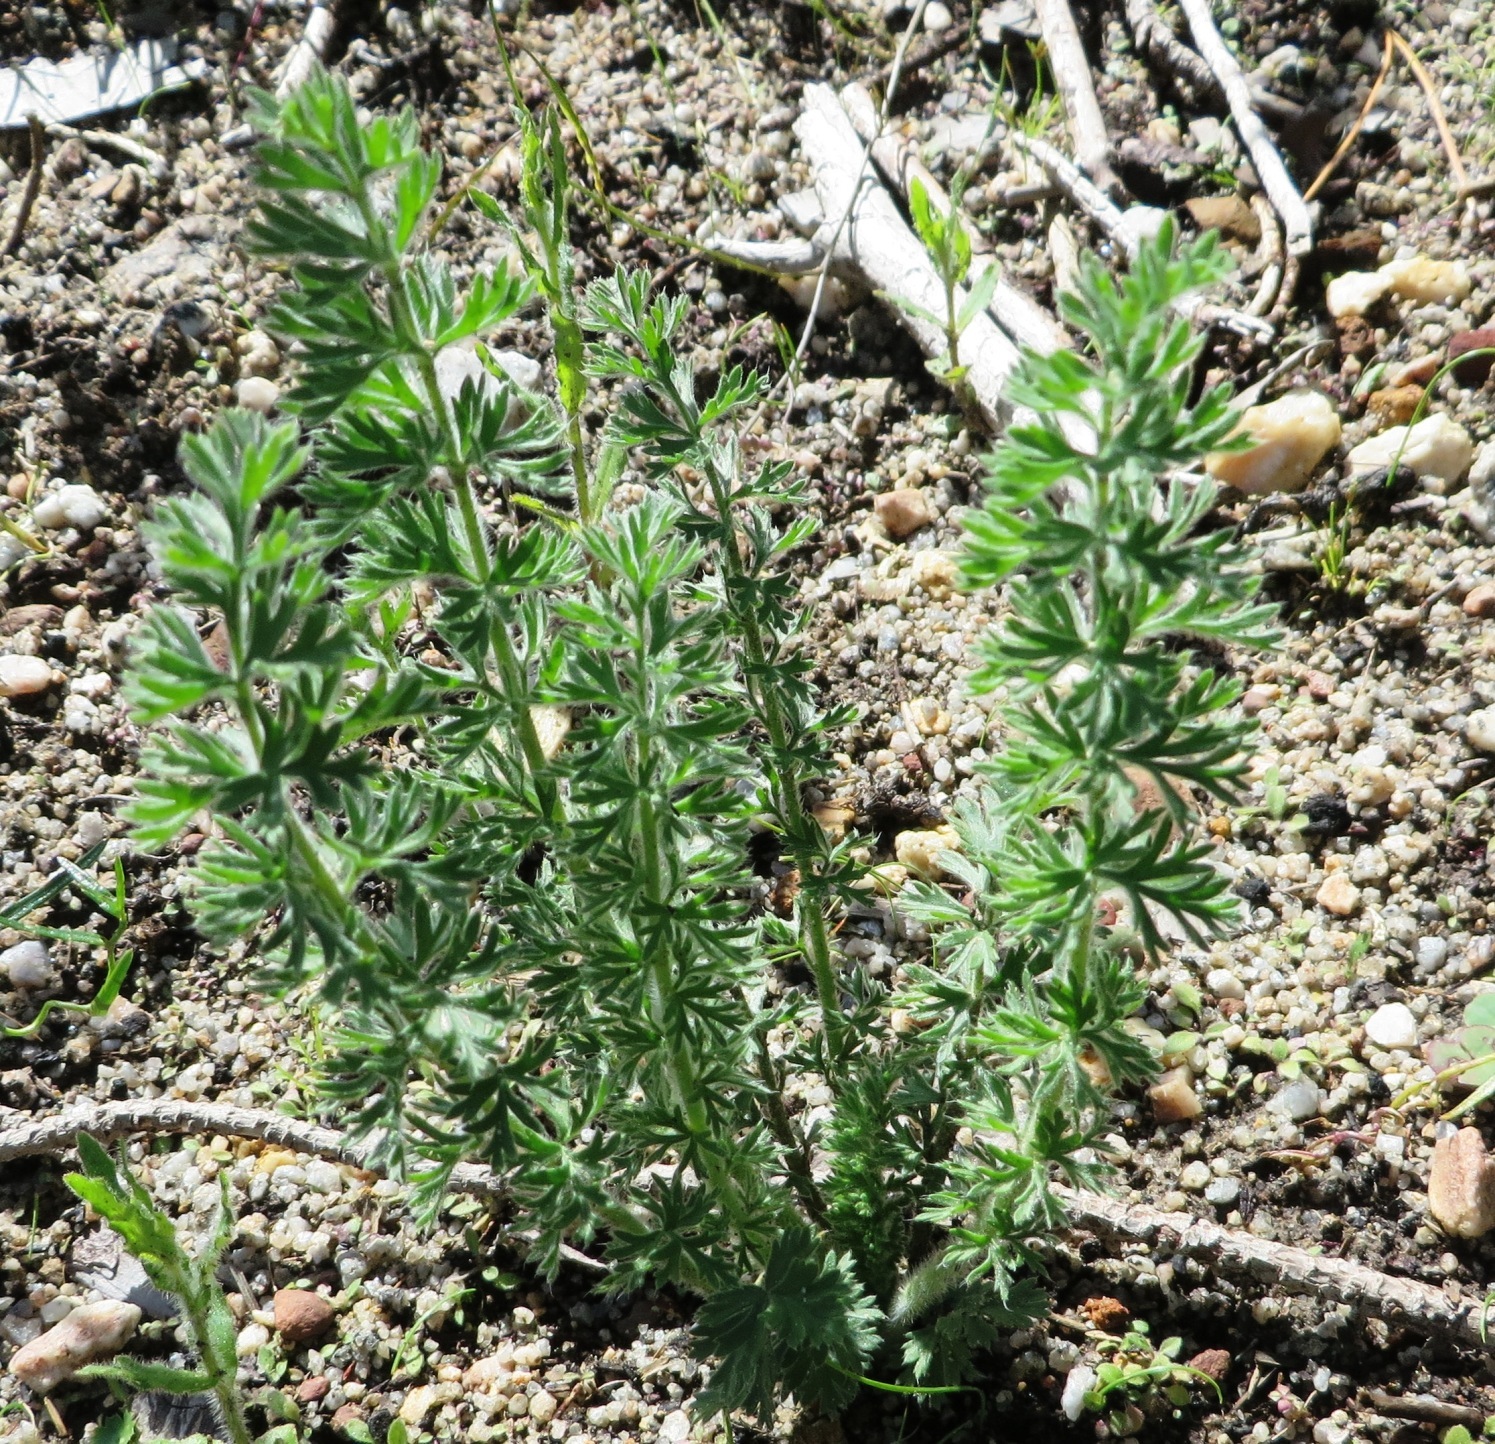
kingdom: Plantae
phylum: Tracheophyta
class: Magnoliopsida
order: Geraniales
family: Geraniaceae
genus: Pelargonium
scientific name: Pelargonium rapaceum
